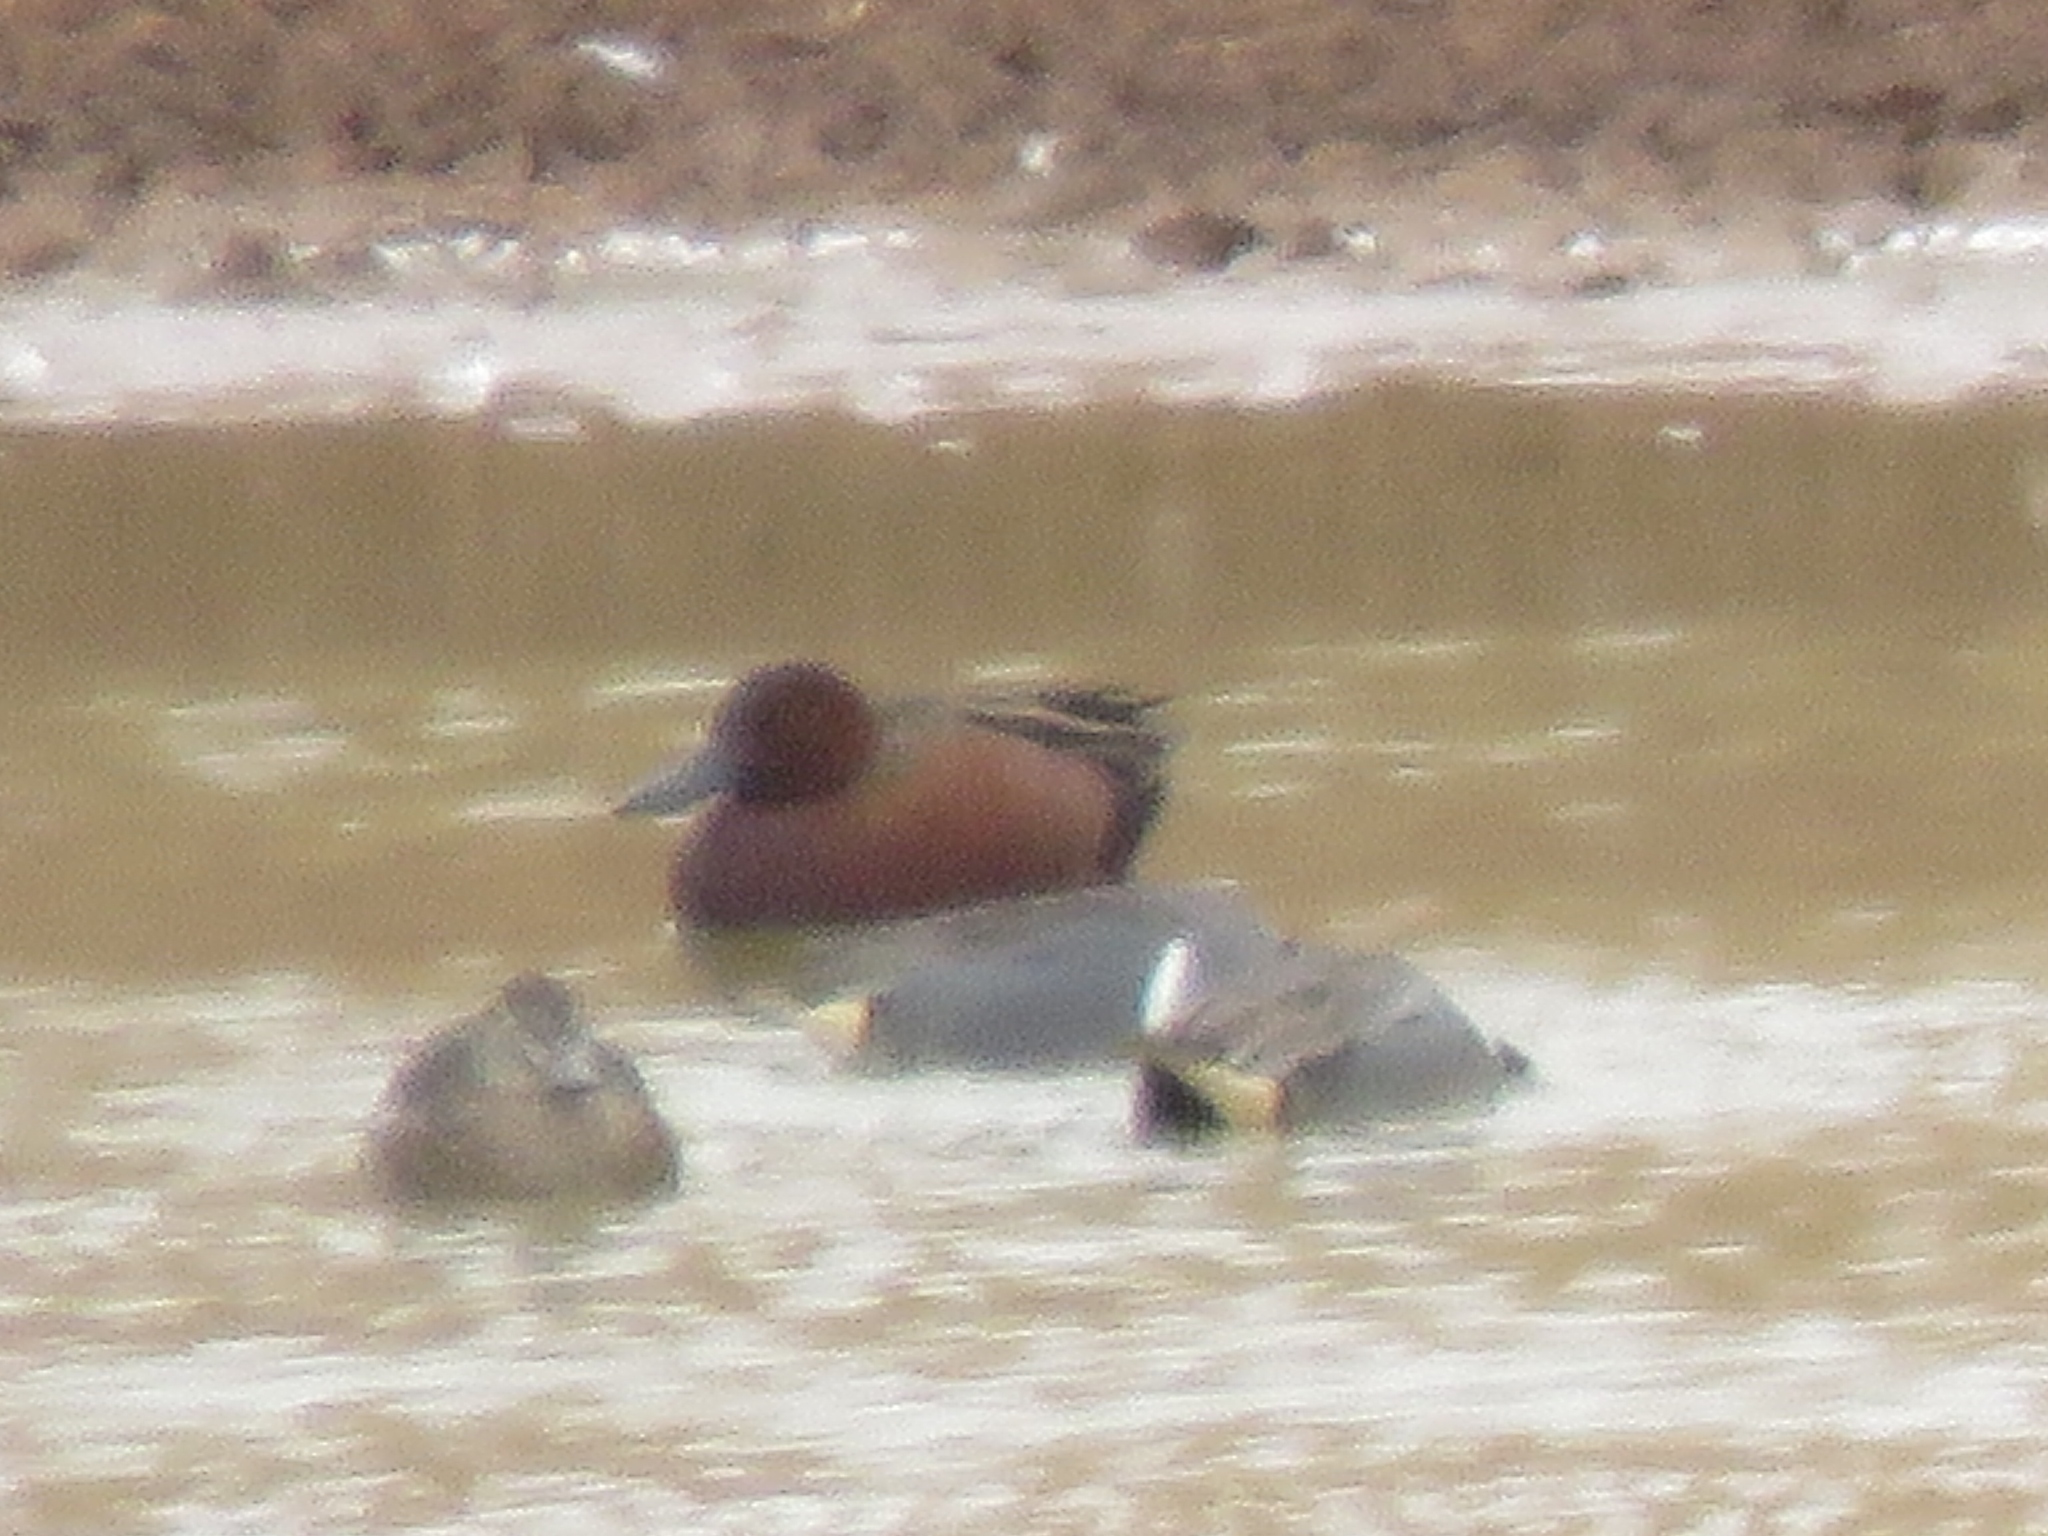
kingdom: Animalia
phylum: Chordata
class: Aves
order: Anseriformes
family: Anatidae
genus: Spatula
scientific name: Spatula cyanoptera
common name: Cinnamon teal
